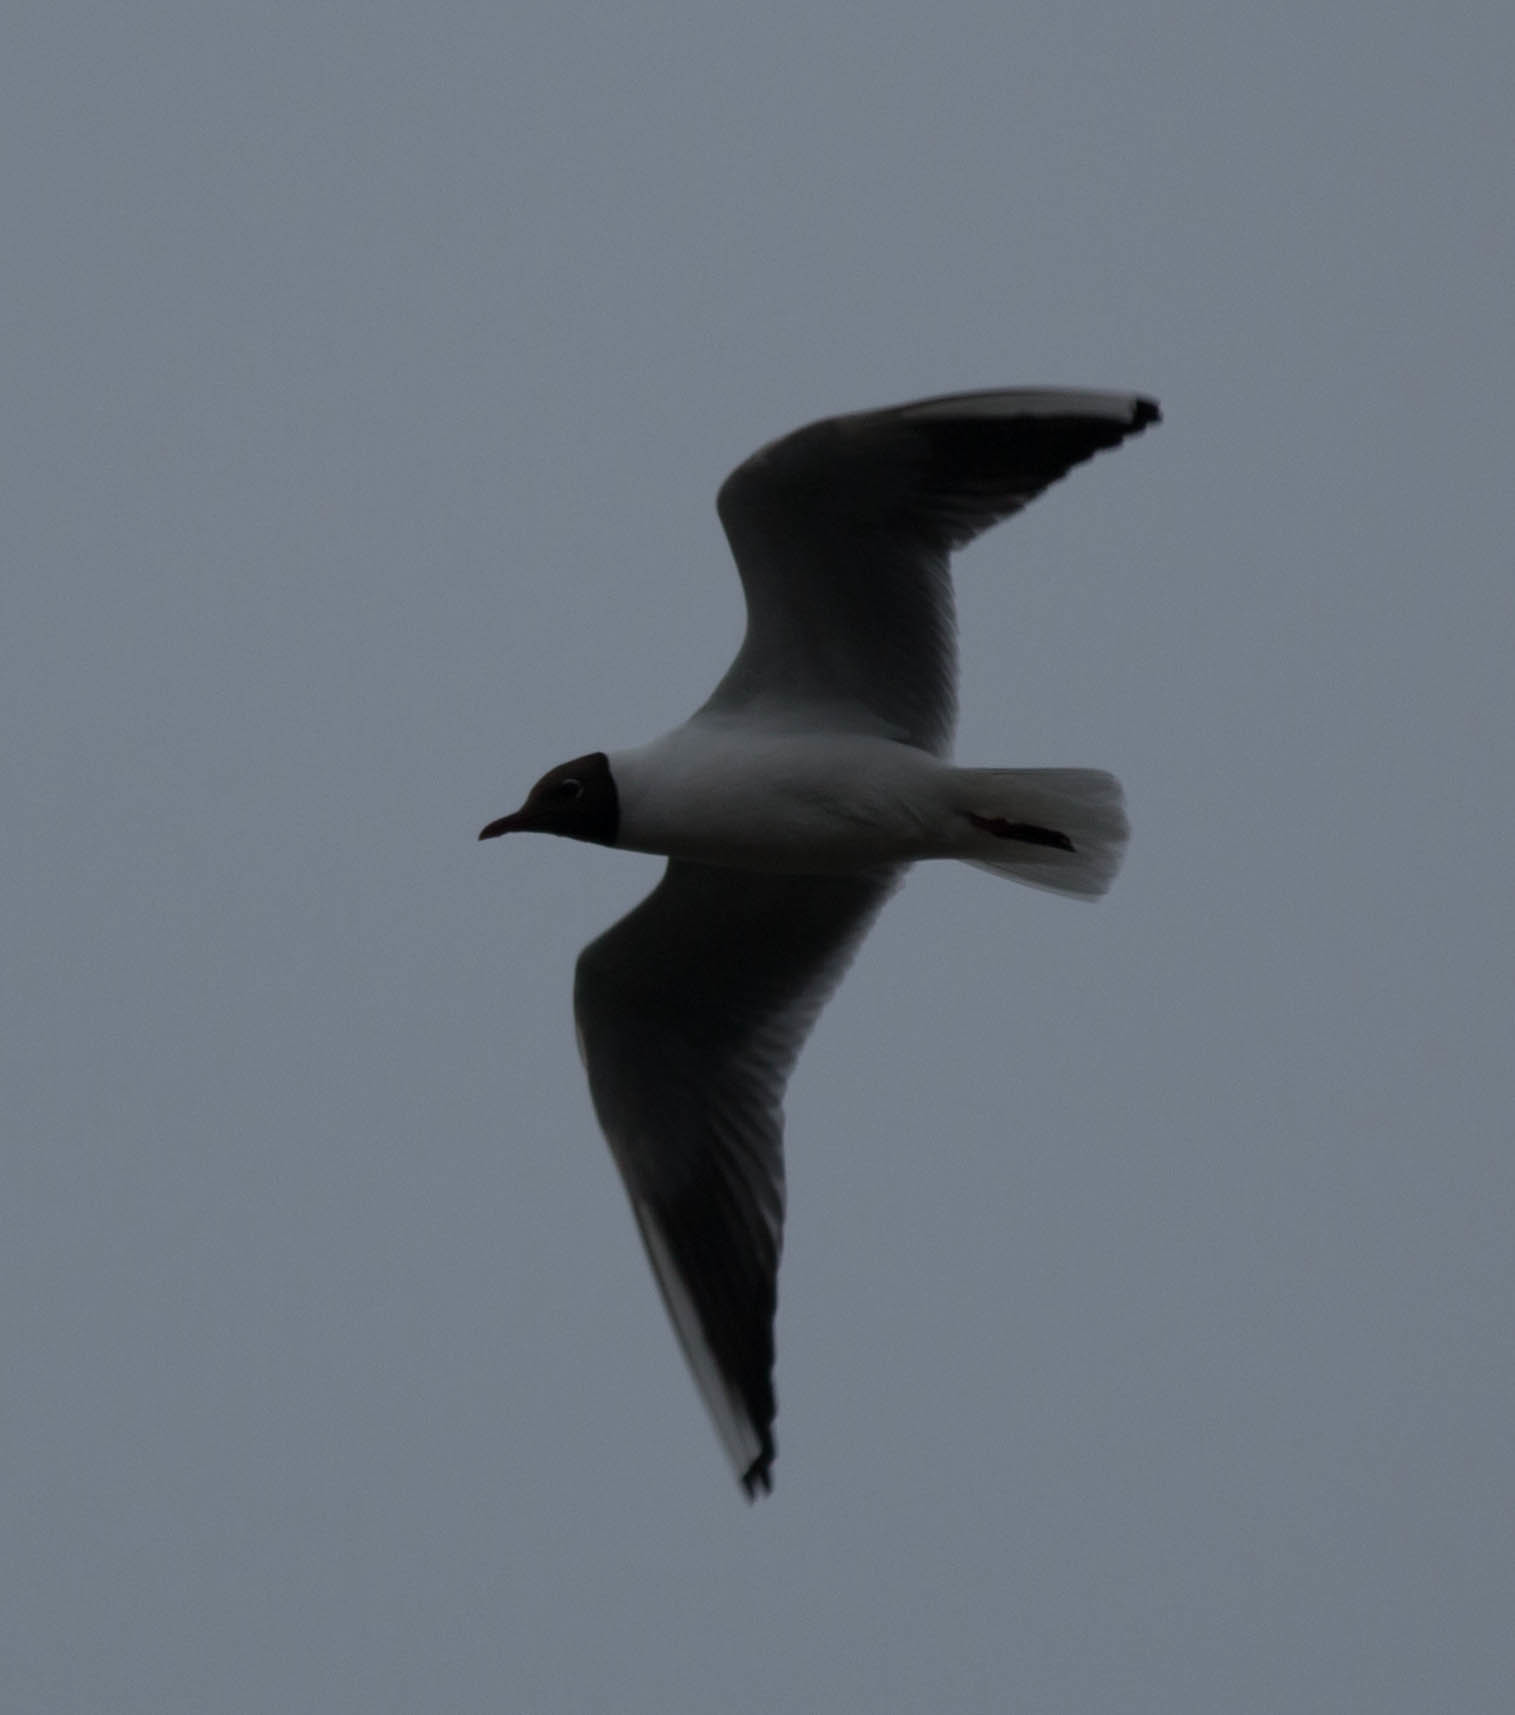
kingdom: Animalia
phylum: Chordata
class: Aves
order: Charadriiformes
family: Laridae
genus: Chroicocephalus
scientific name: Chroicocephalus ridibundus
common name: Black-headed gull
